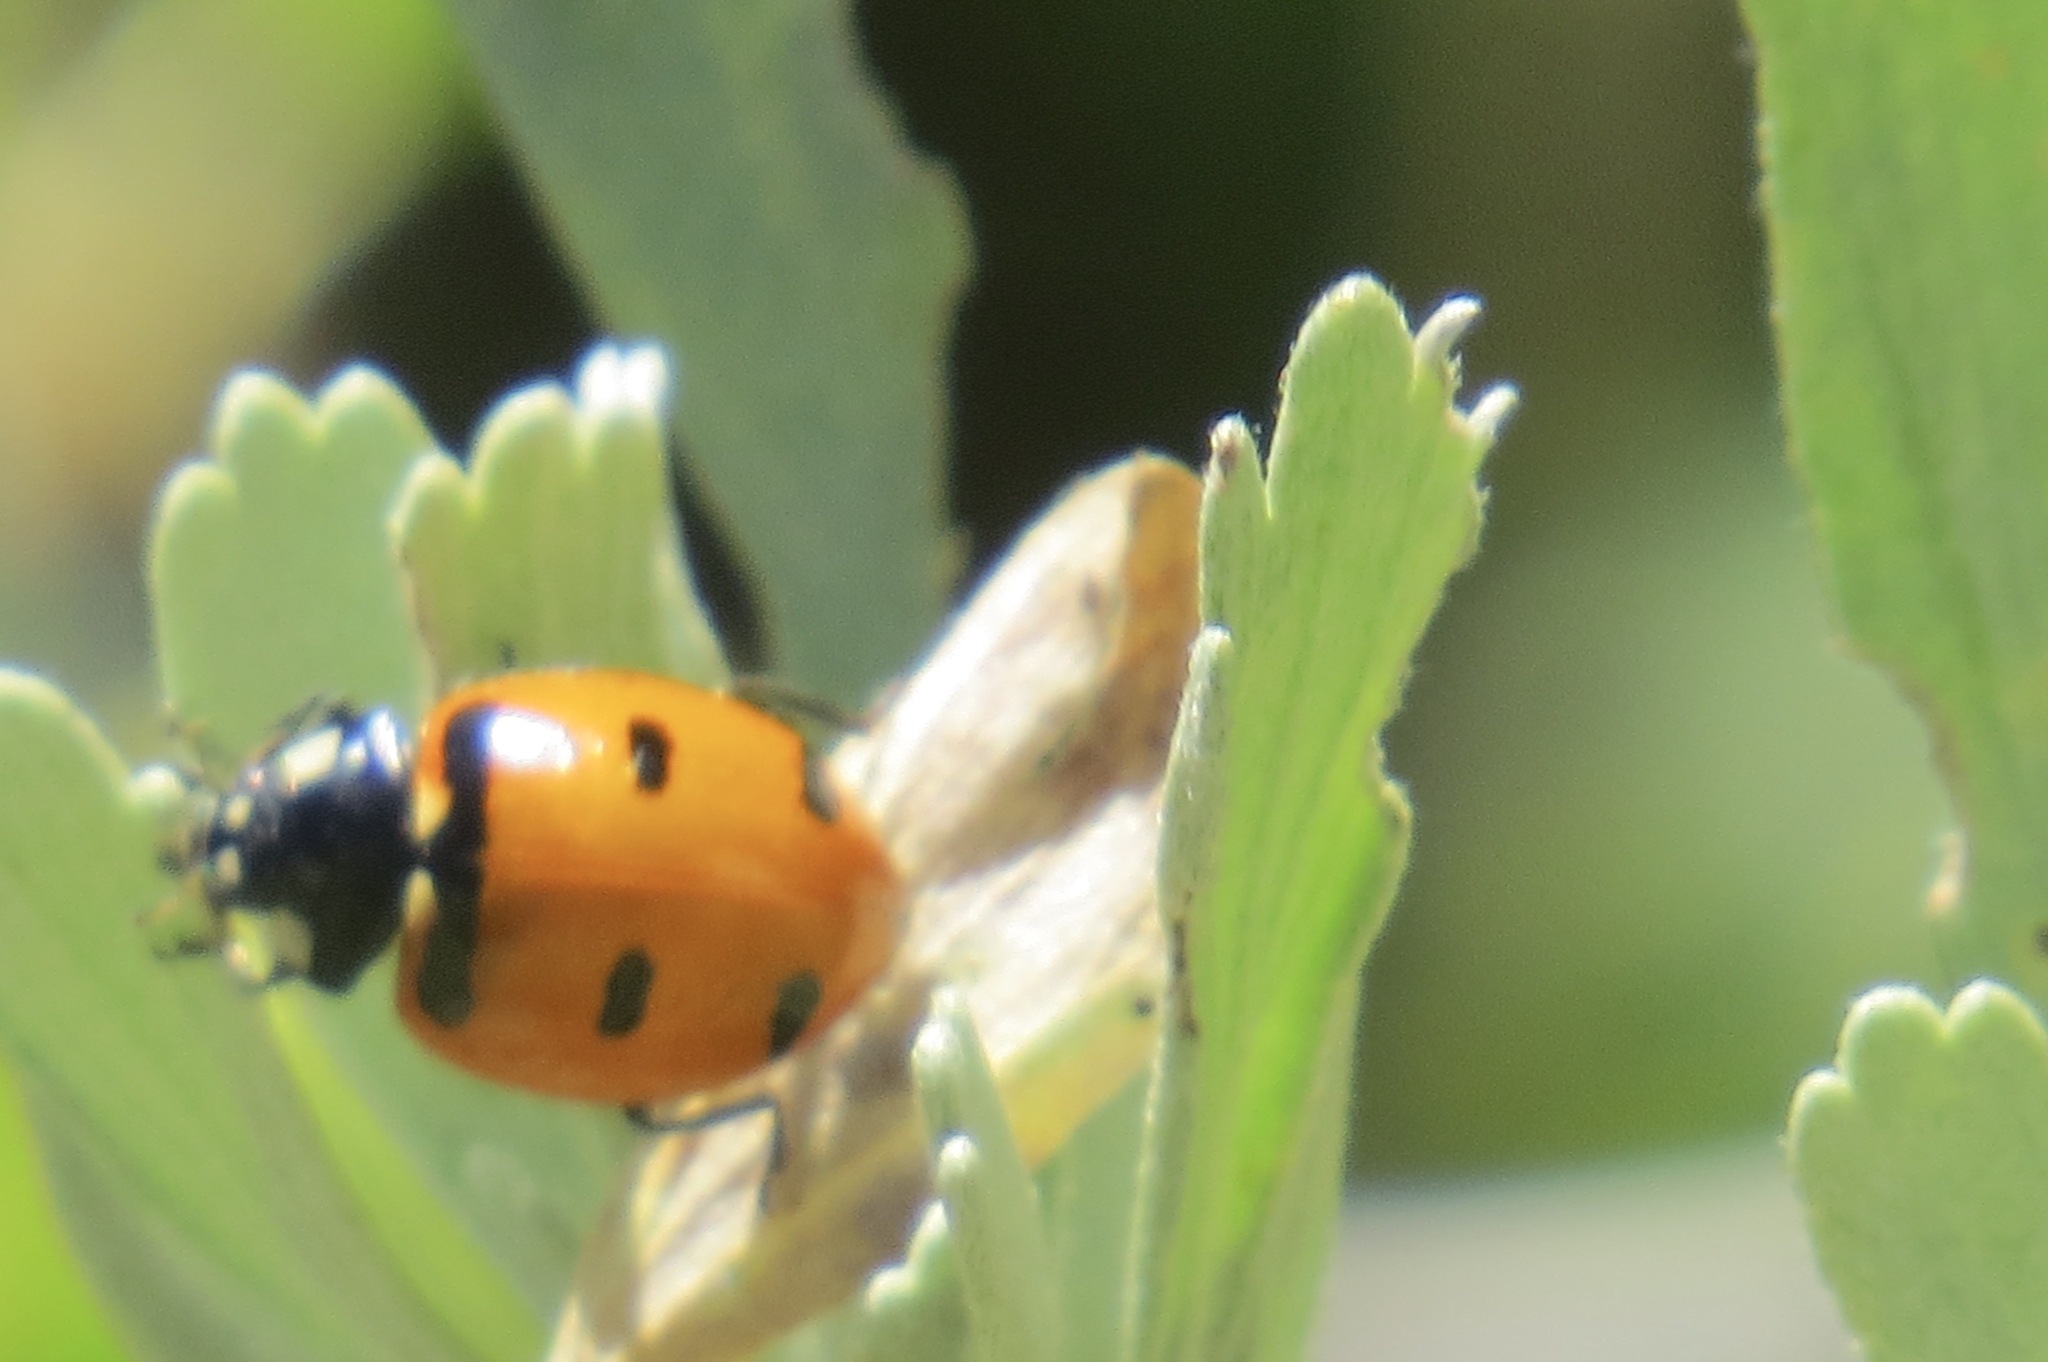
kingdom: Animalia
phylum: Arthropoda
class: Insecta
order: Coleoptera
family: Coccinellidae
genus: Coccinella
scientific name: Coccinella transversoguttata
